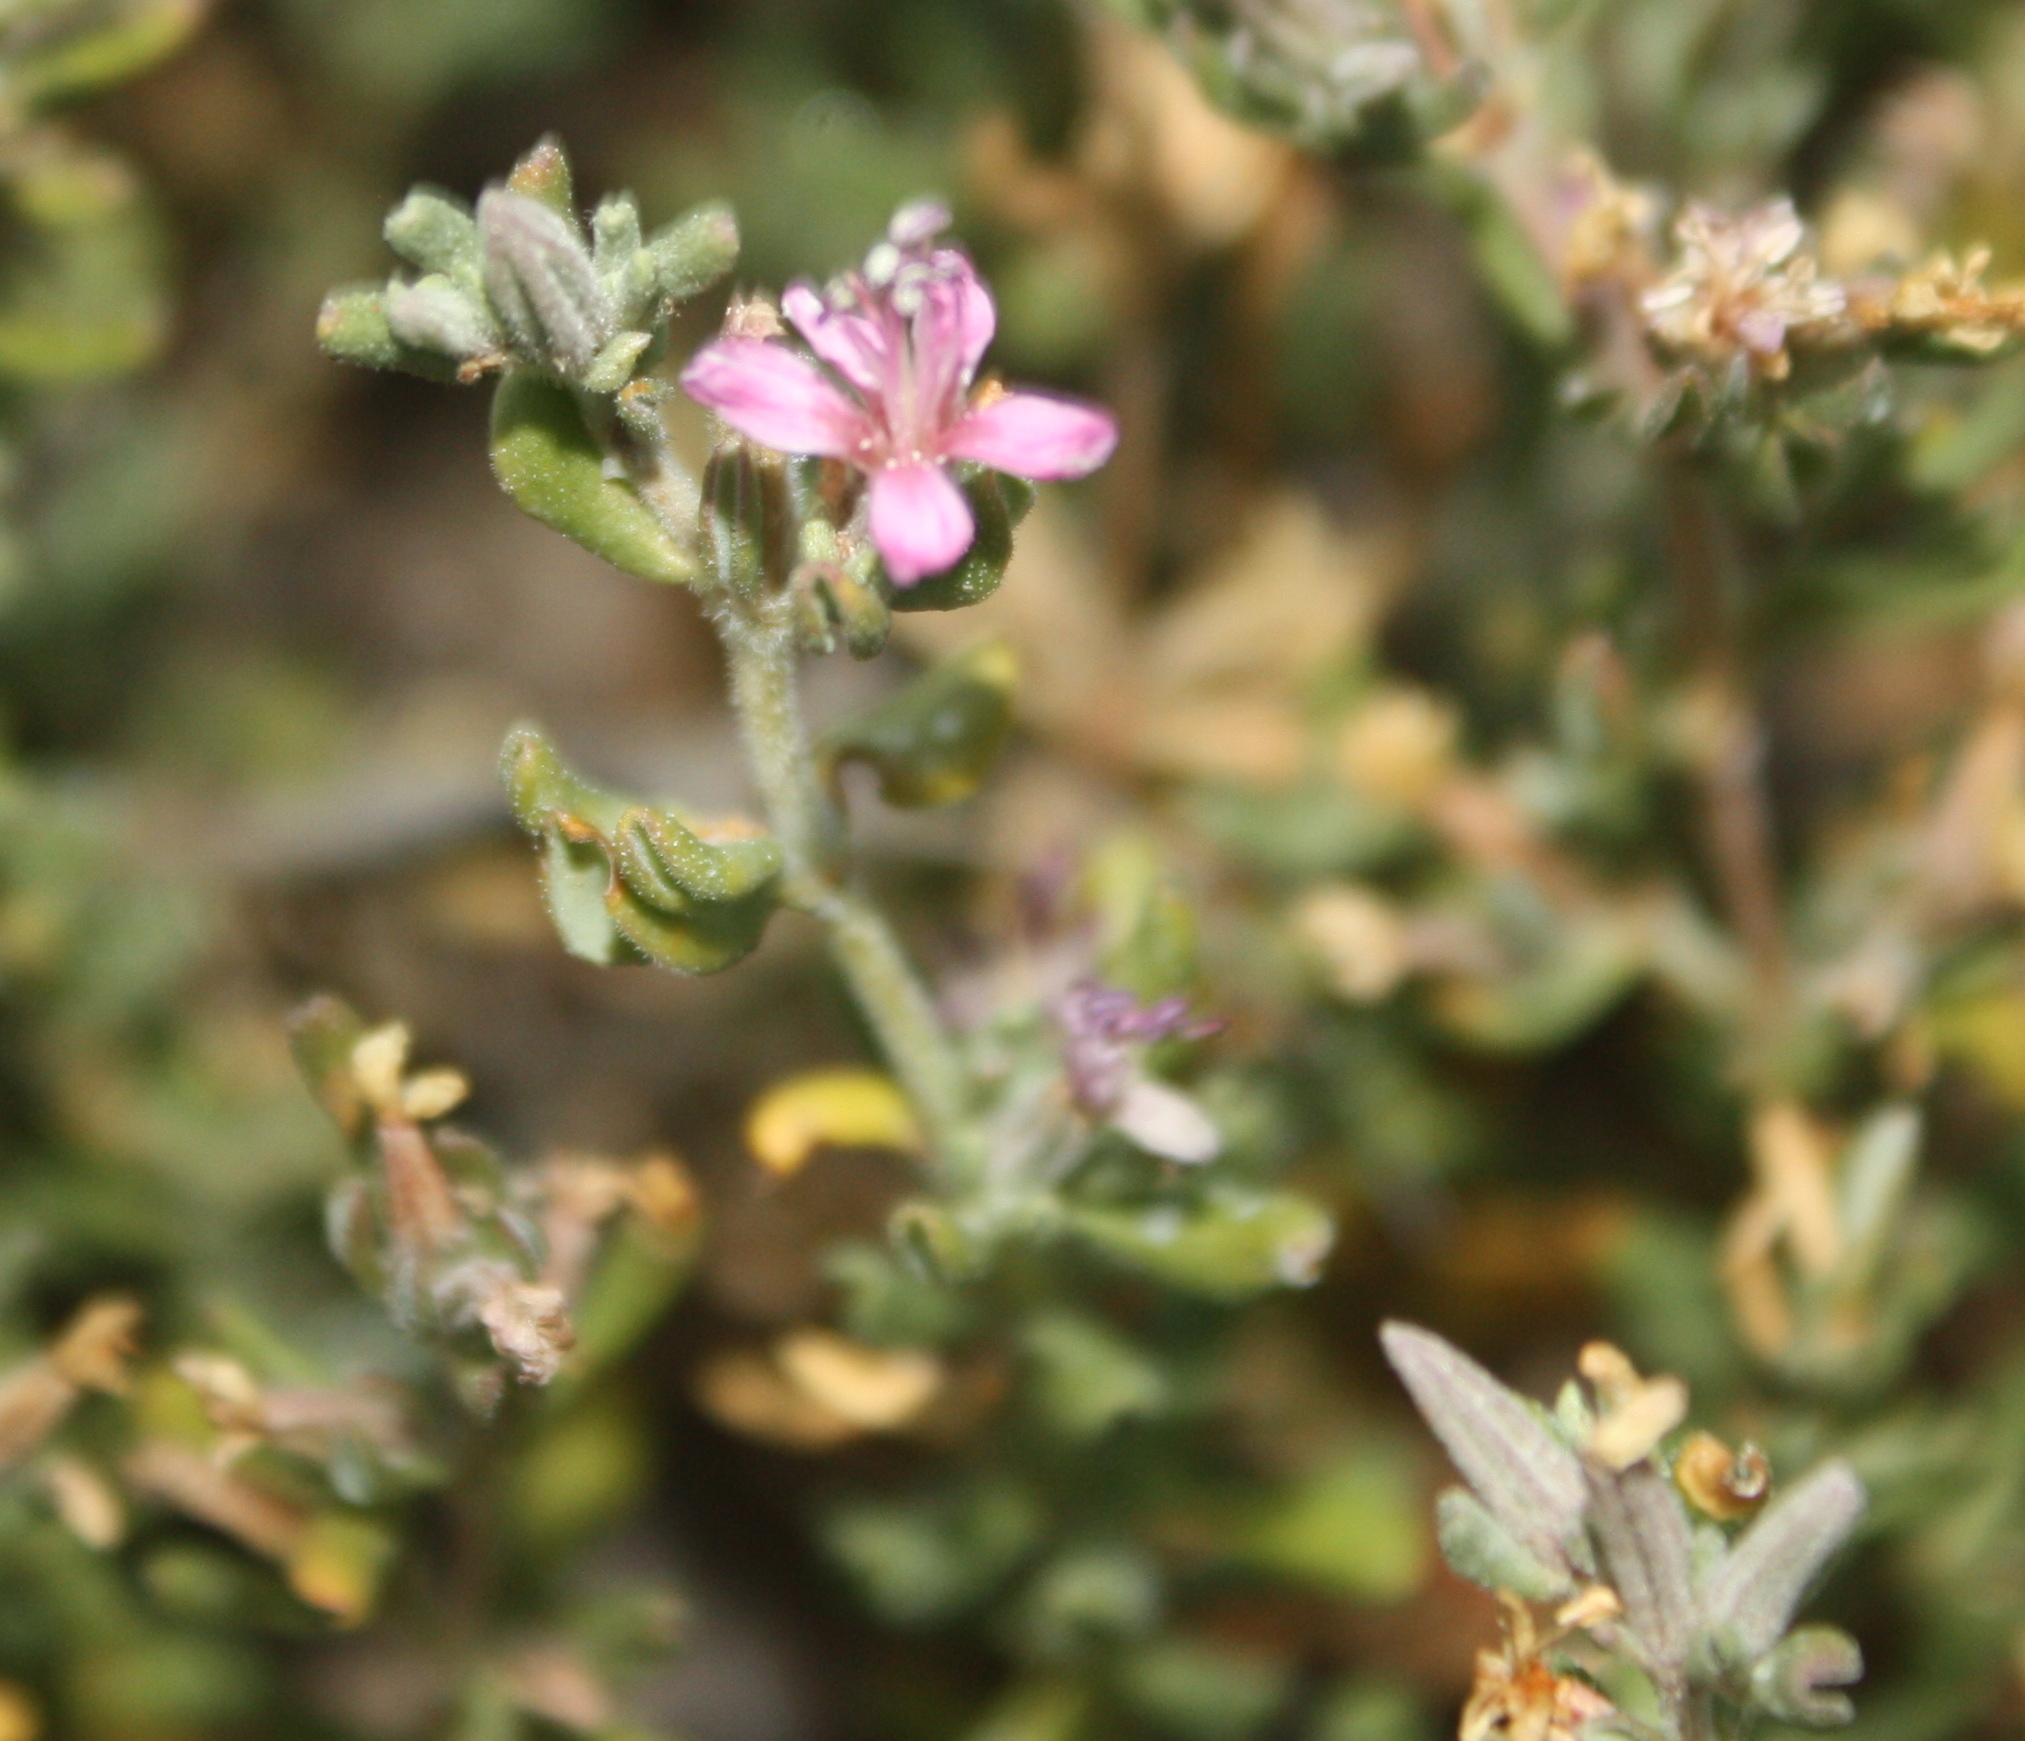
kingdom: Plantae
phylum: Tracheophyta
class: Magnoliopsida
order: Caryophyllales
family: Frankeniaceae
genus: Frankenia
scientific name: Frankenia salina
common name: Alkali seaheath
